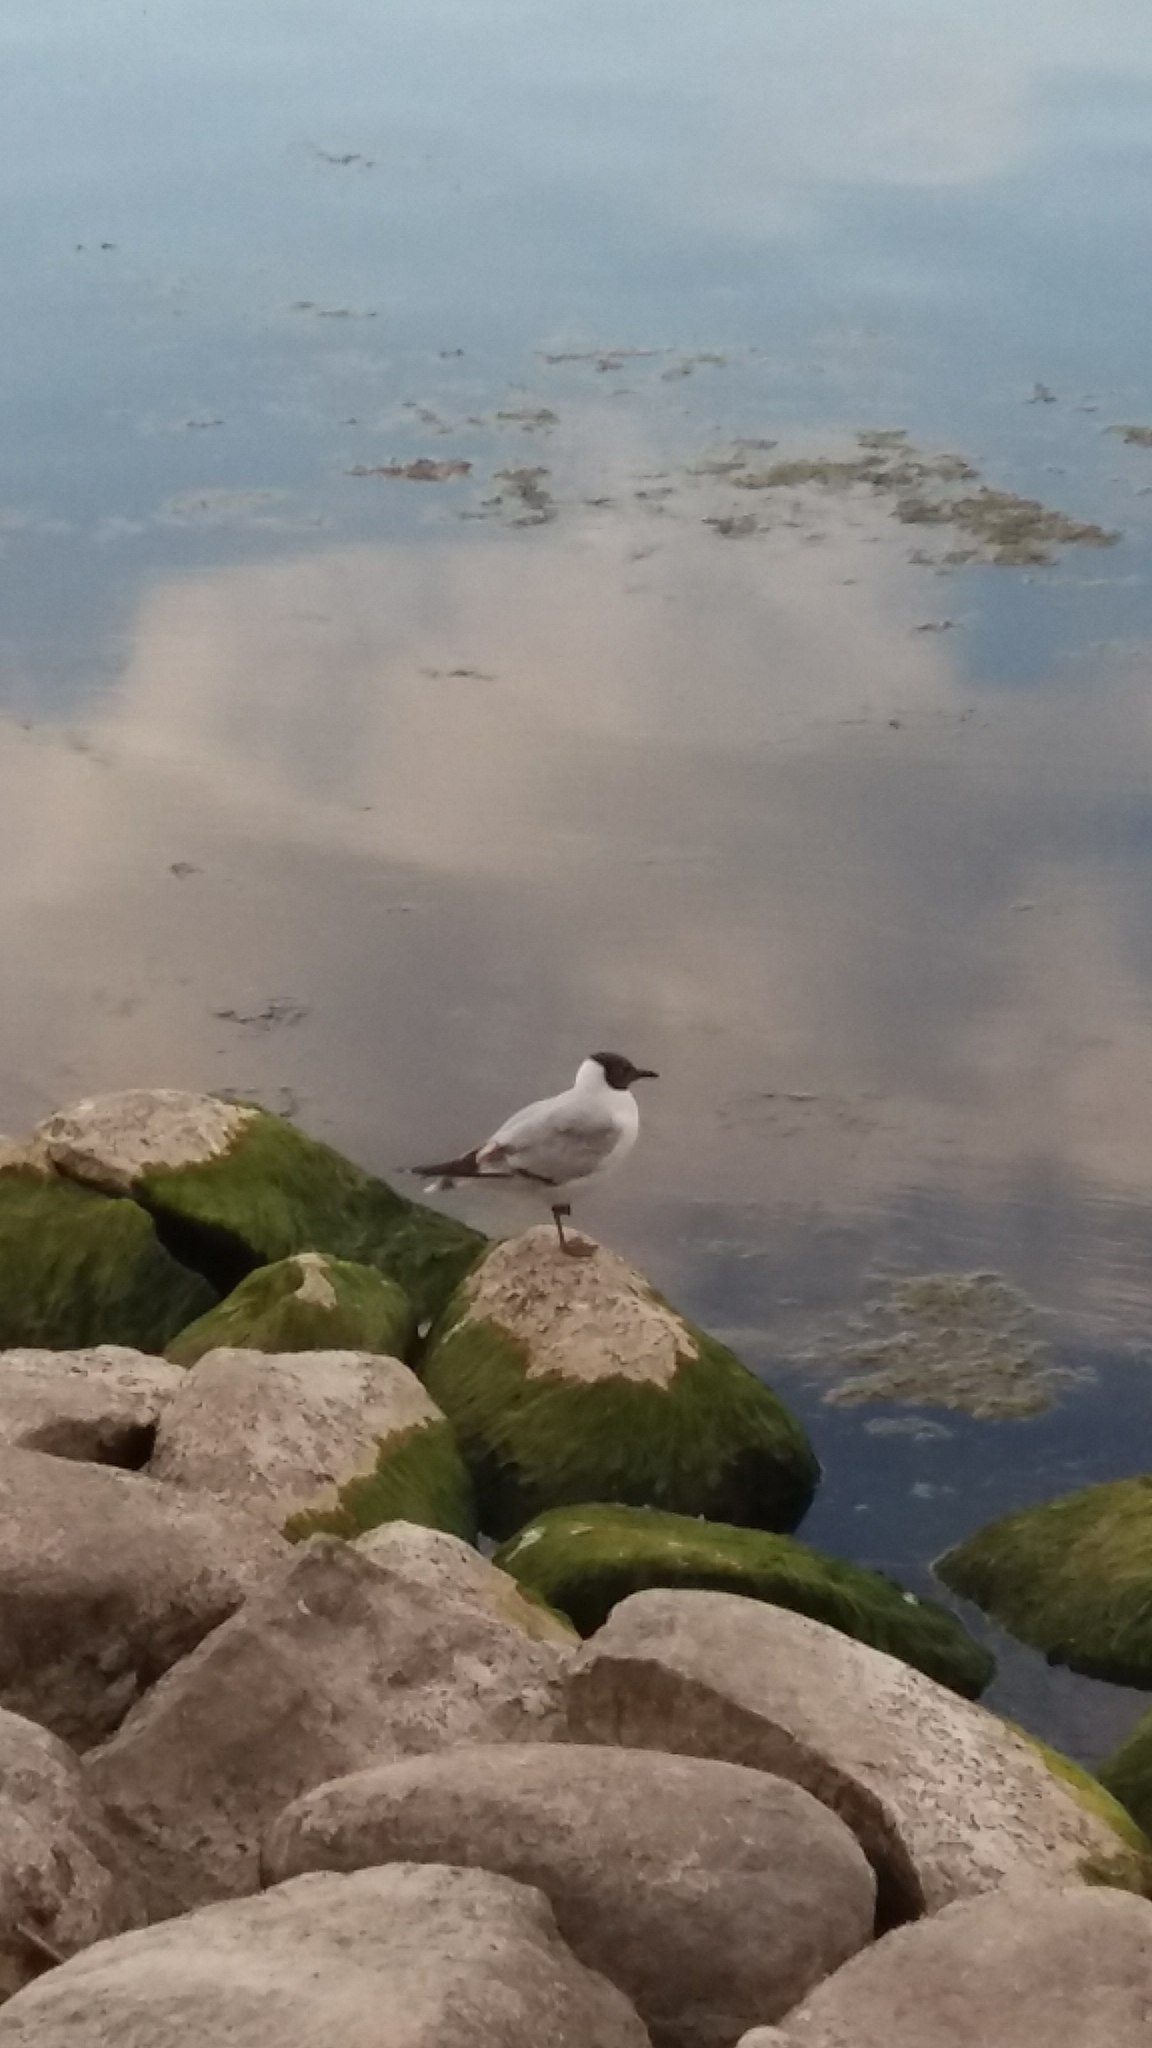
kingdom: Animalia
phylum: Chordata
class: Aves
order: Charadriiformes
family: Laridae
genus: Chroicocephalus
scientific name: Chroicocephalus ridibundus
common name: Black-headed gull
